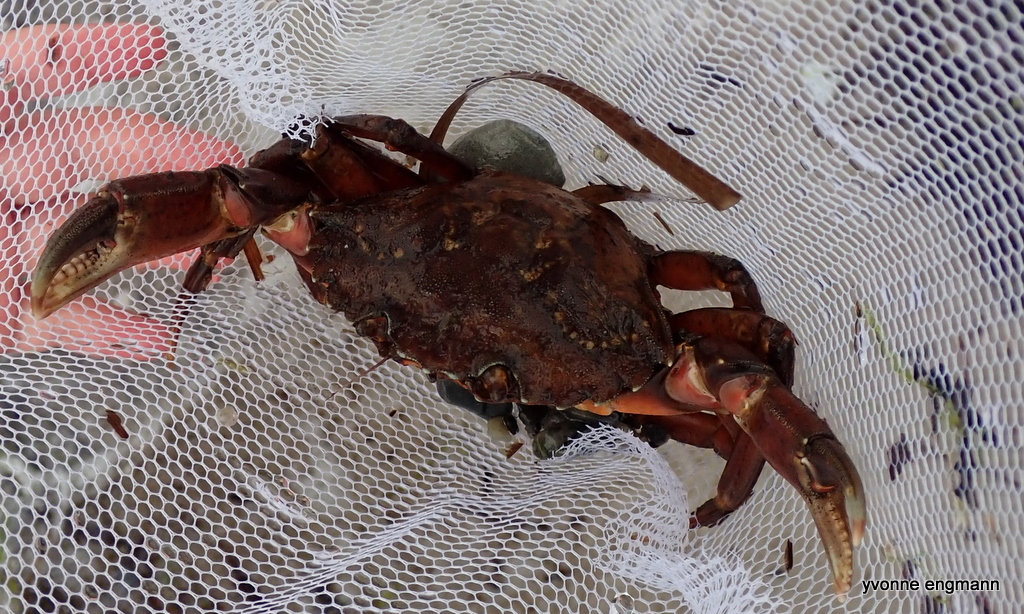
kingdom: Animalia
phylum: Arthropoda
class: Malacostraca
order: Decapoda
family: Carcinidae
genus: Carcinus
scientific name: Carcinus maenas
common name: European green crab
